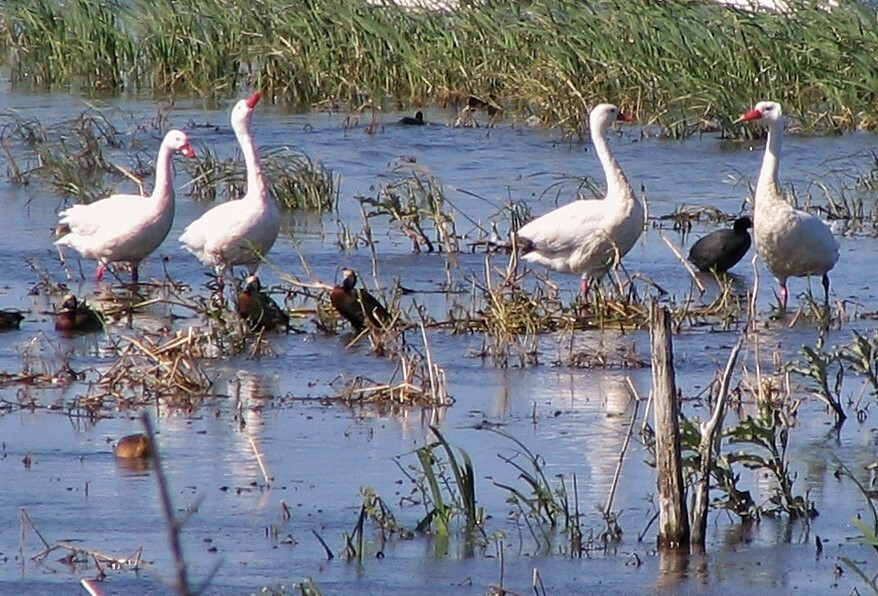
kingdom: Animalia
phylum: Chordata
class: Aves
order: Anseriformes
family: Anatidae
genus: Coscoroba
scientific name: Coscoroba coscoroba
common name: Coscoroba swan
